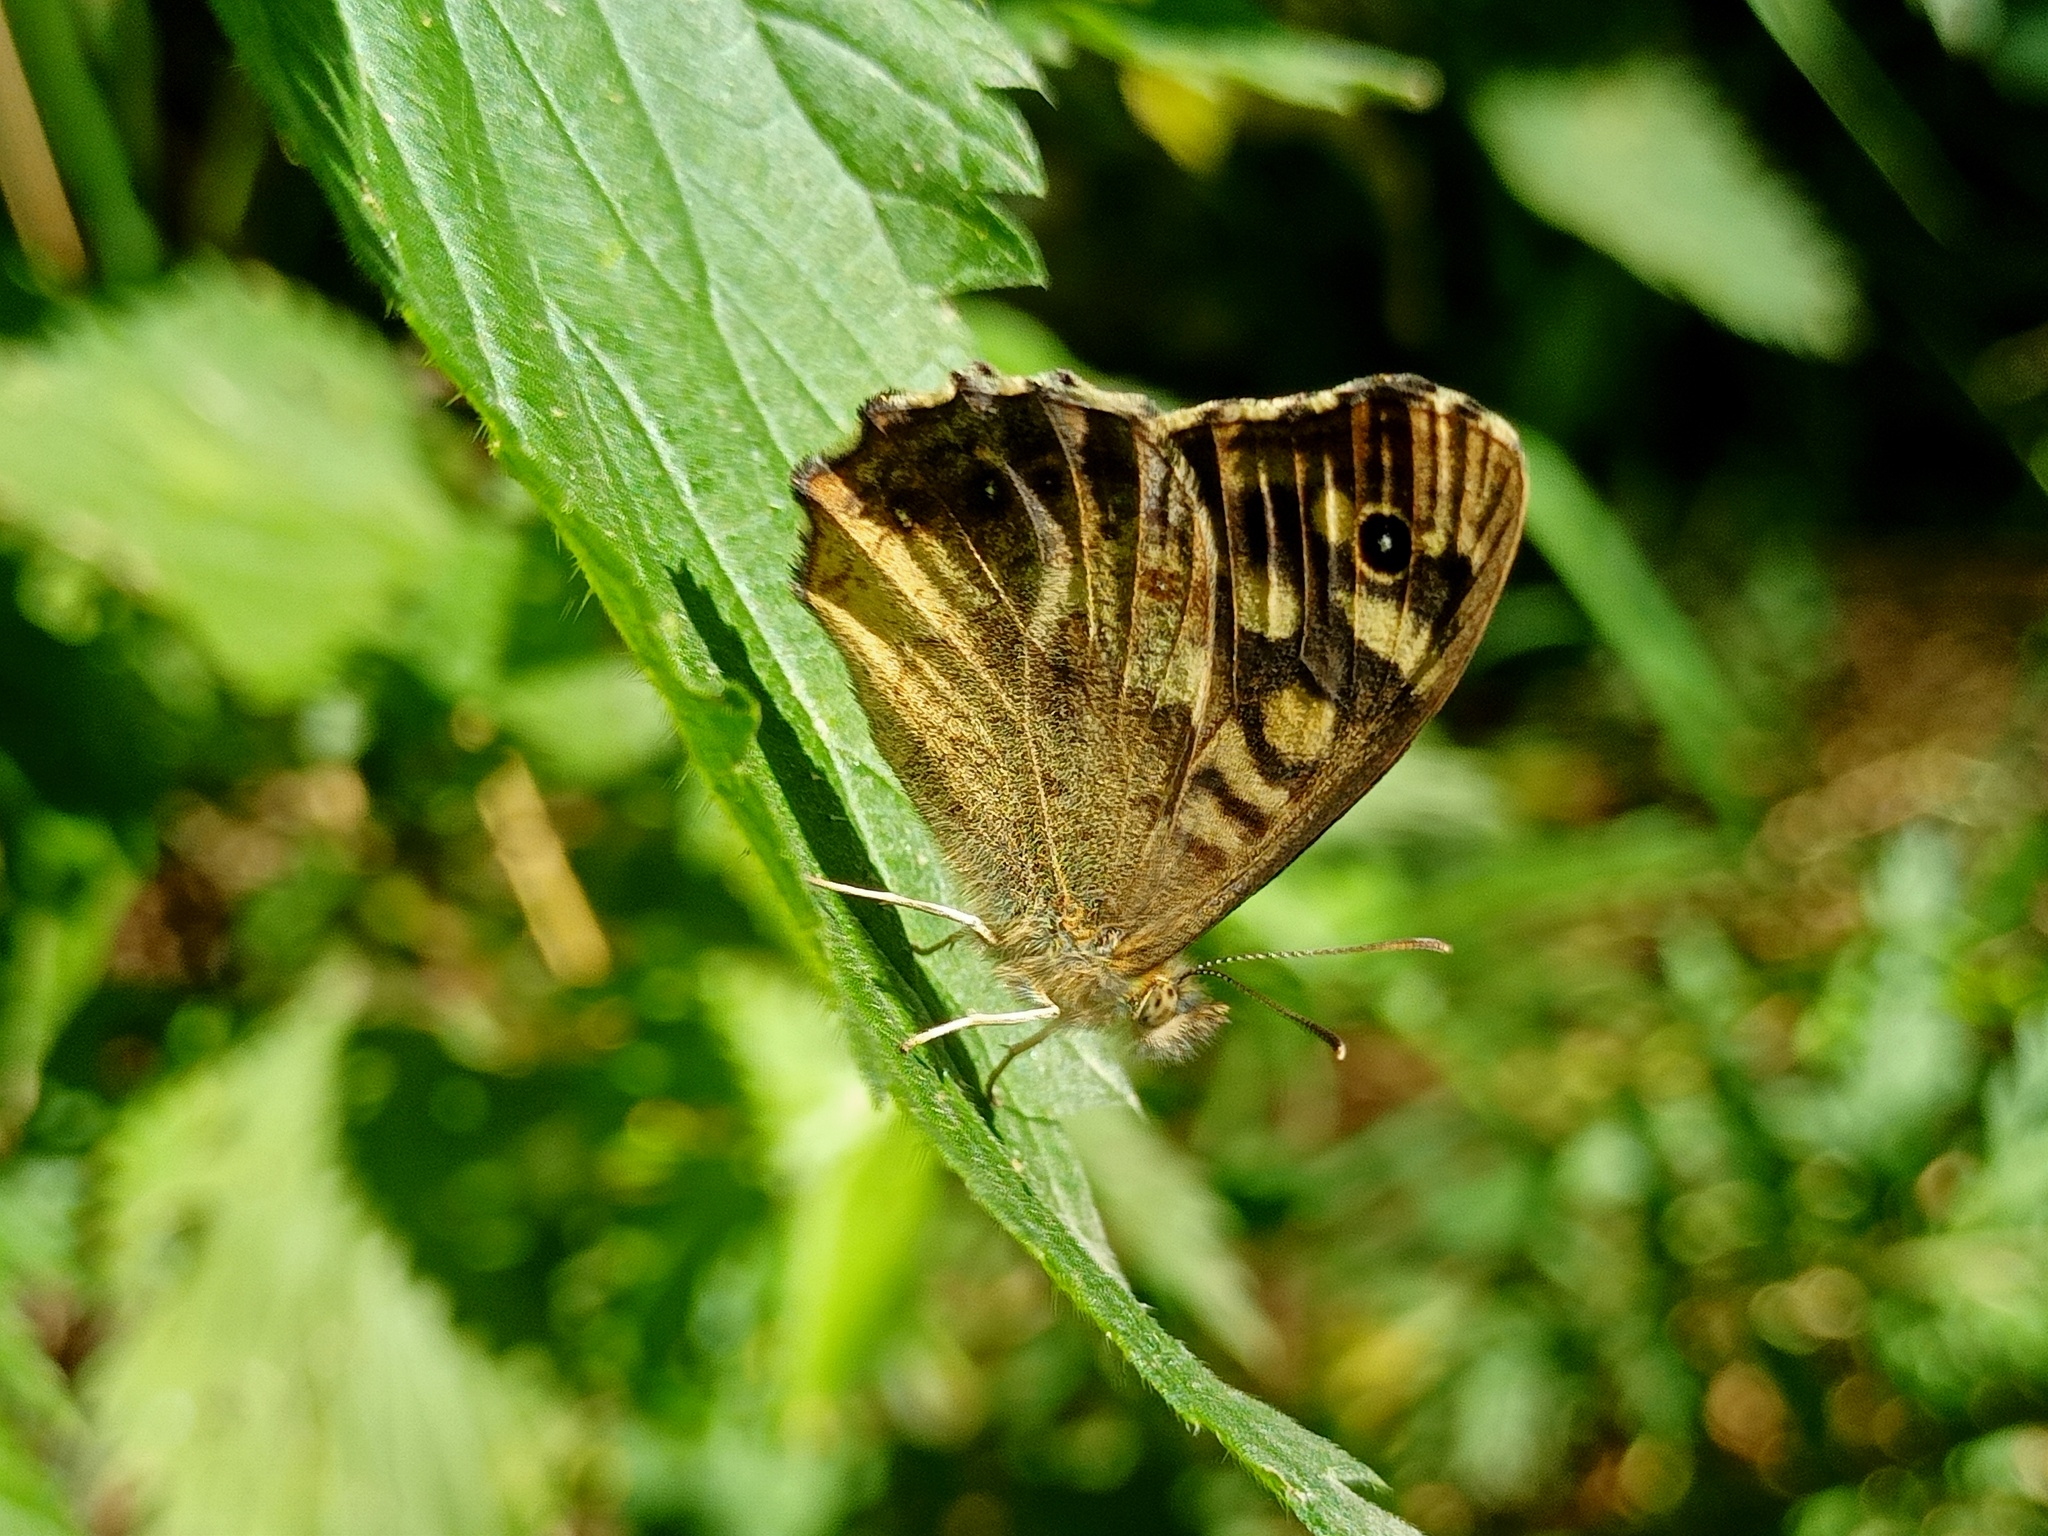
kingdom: Animalia
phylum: Arthropoda
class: Insecta
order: Lepidoptera
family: Nymphalidae
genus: Pararge
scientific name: Pararge aegeria
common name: Speckled wood
